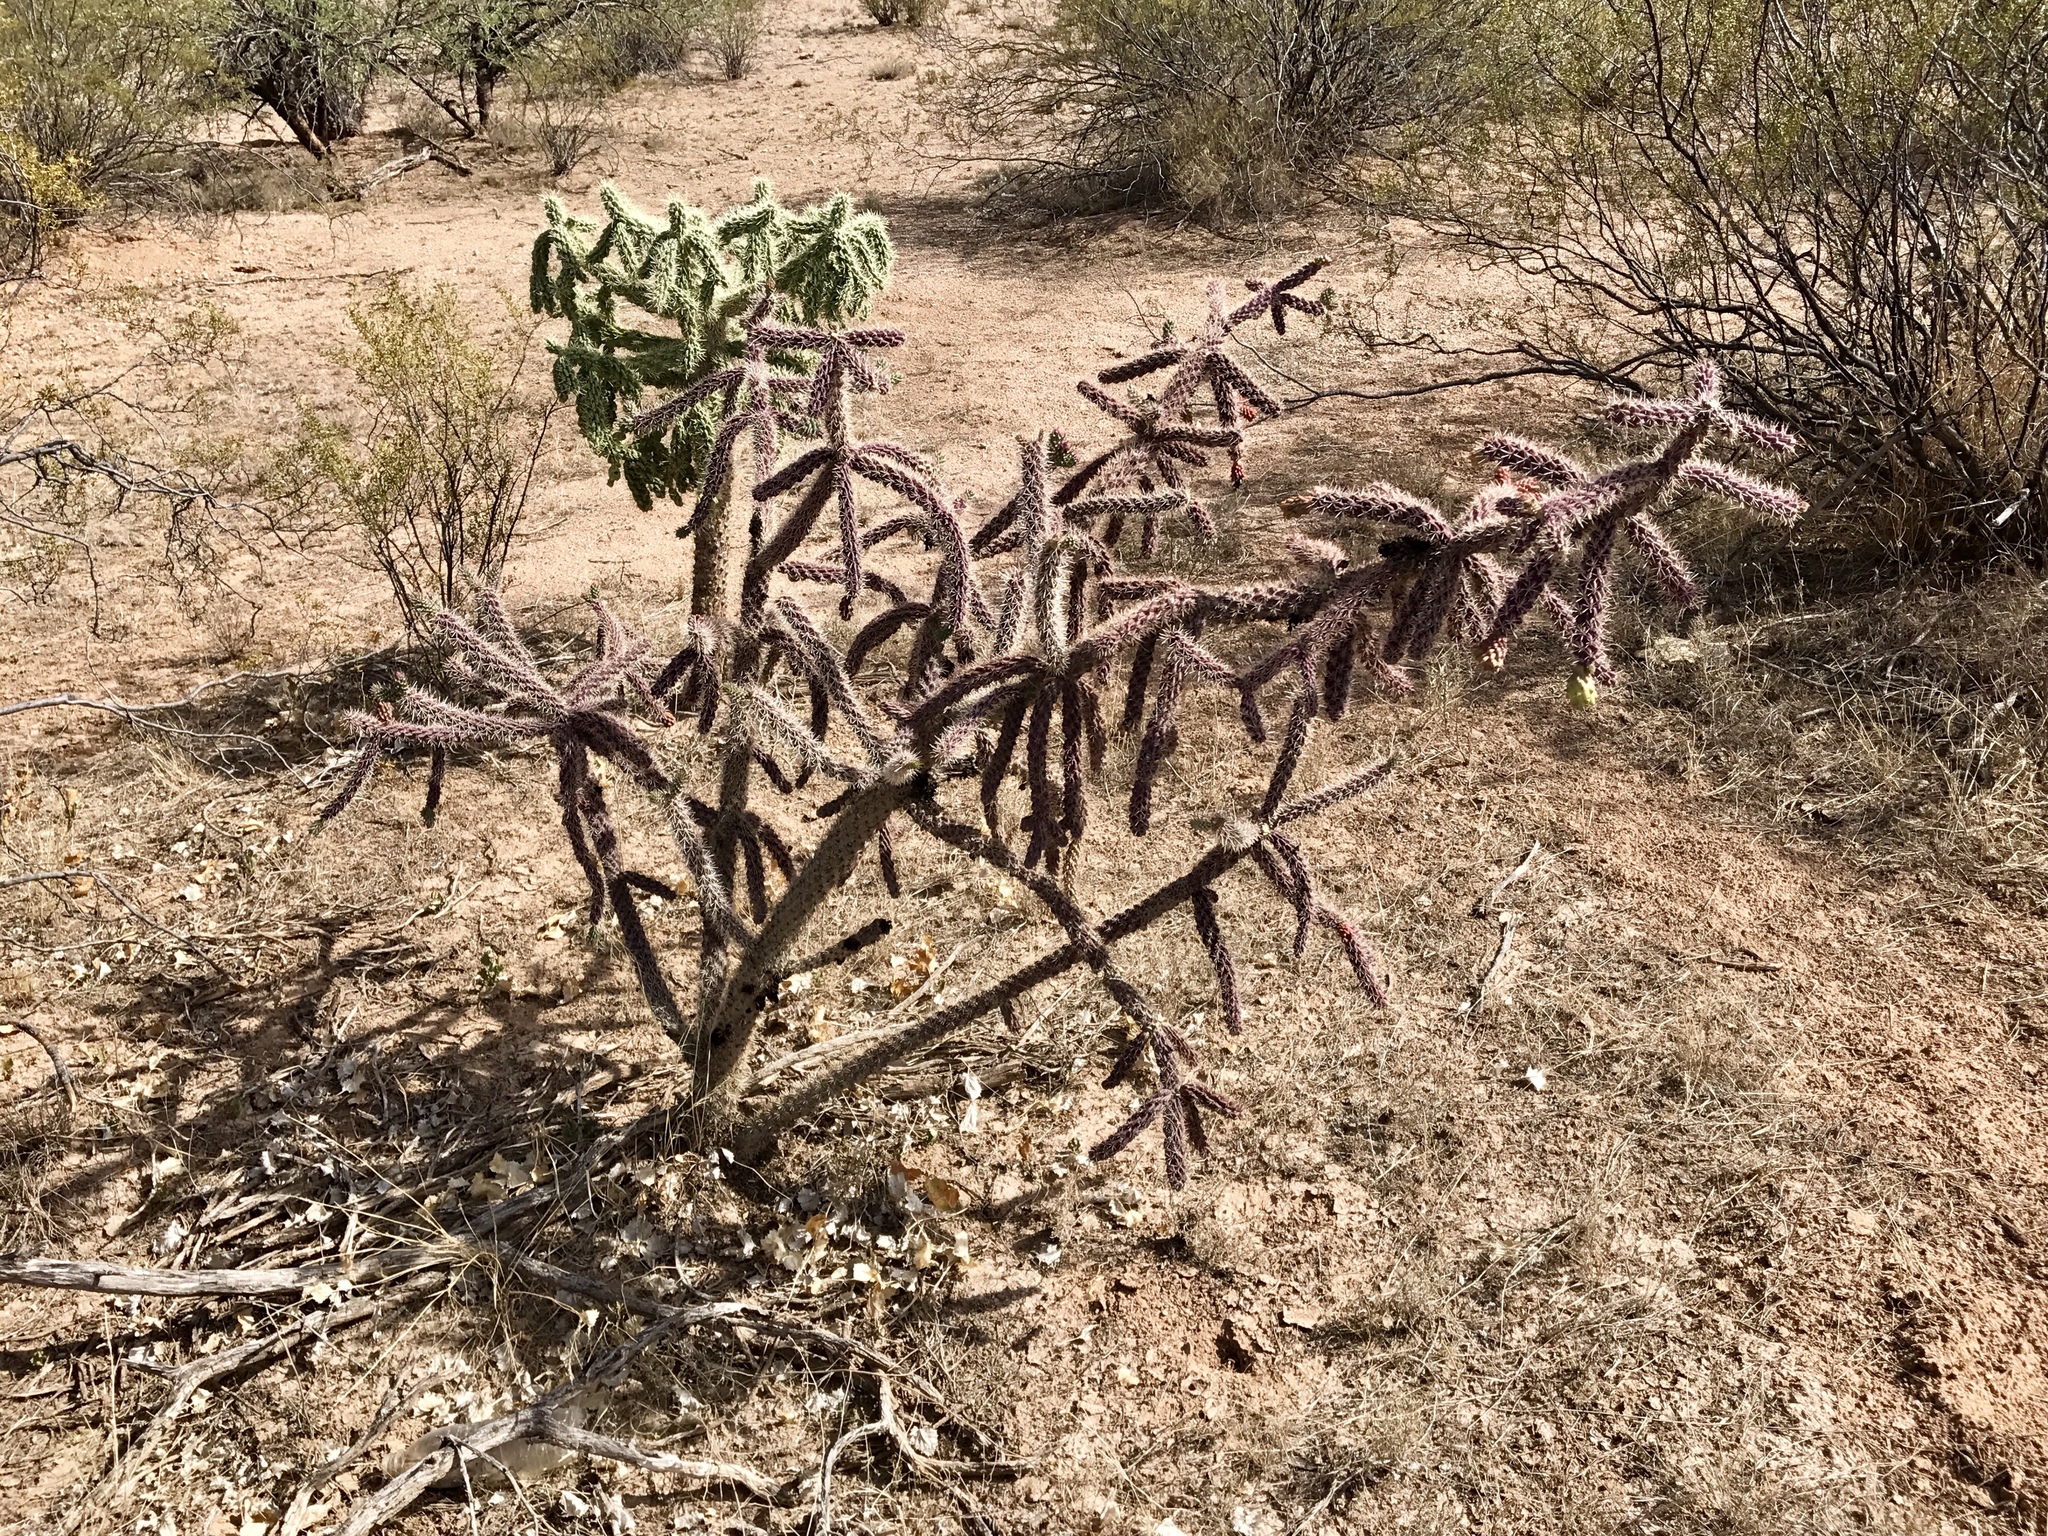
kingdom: Plantae
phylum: Tracheophyta
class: Magnoliopsida
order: Caryophyllales
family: Cactaceae
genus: Cylindropuntia
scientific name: Cylindropuntia imbricata
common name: Candelabrum cactus
